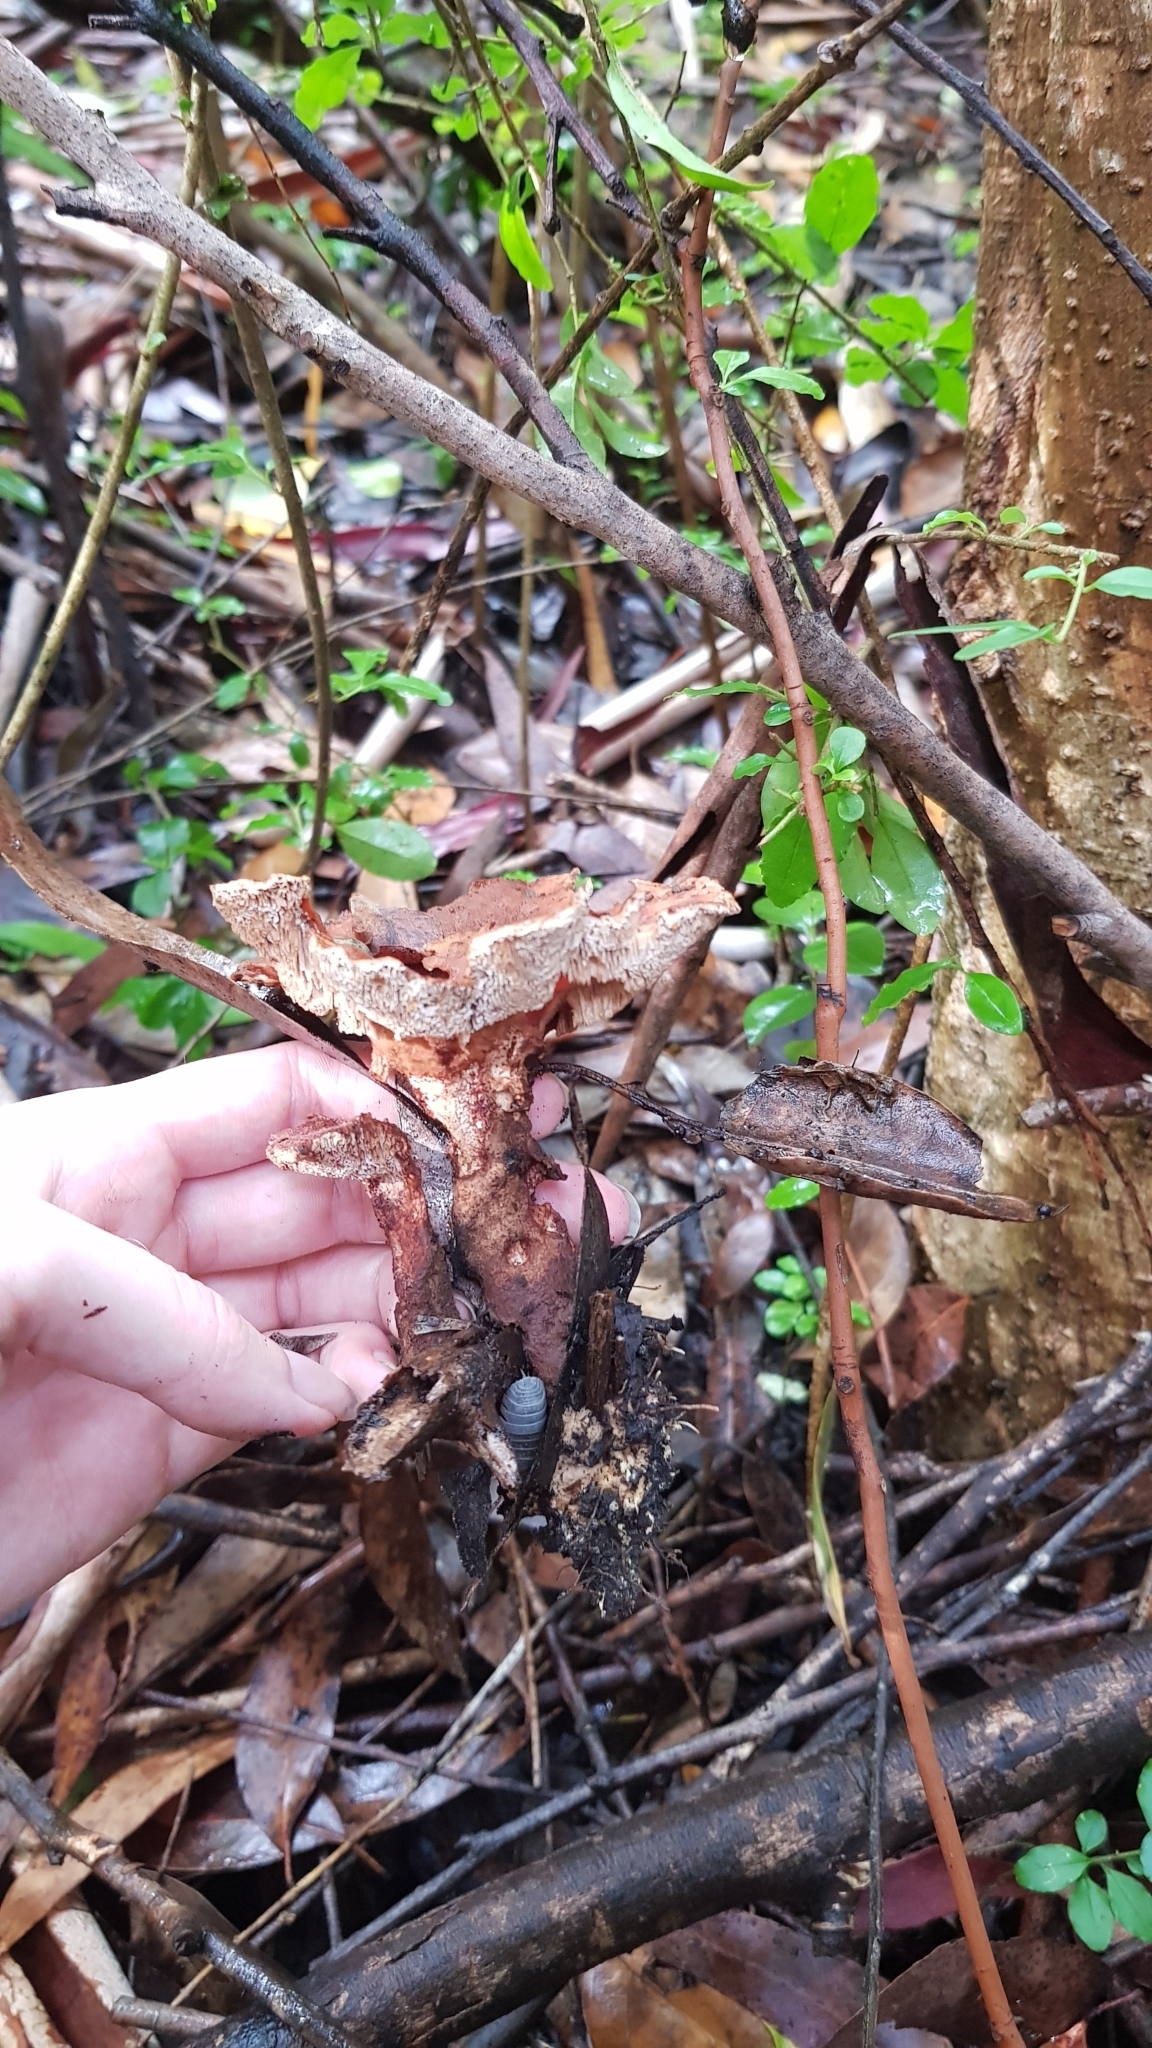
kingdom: Fungi
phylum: Basidiomycota
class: Agaricomycetes
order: Polyporales
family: Podoscyphaceae
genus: Abortiporus
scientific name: Abortiporus biennis
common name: Blushing rosette
